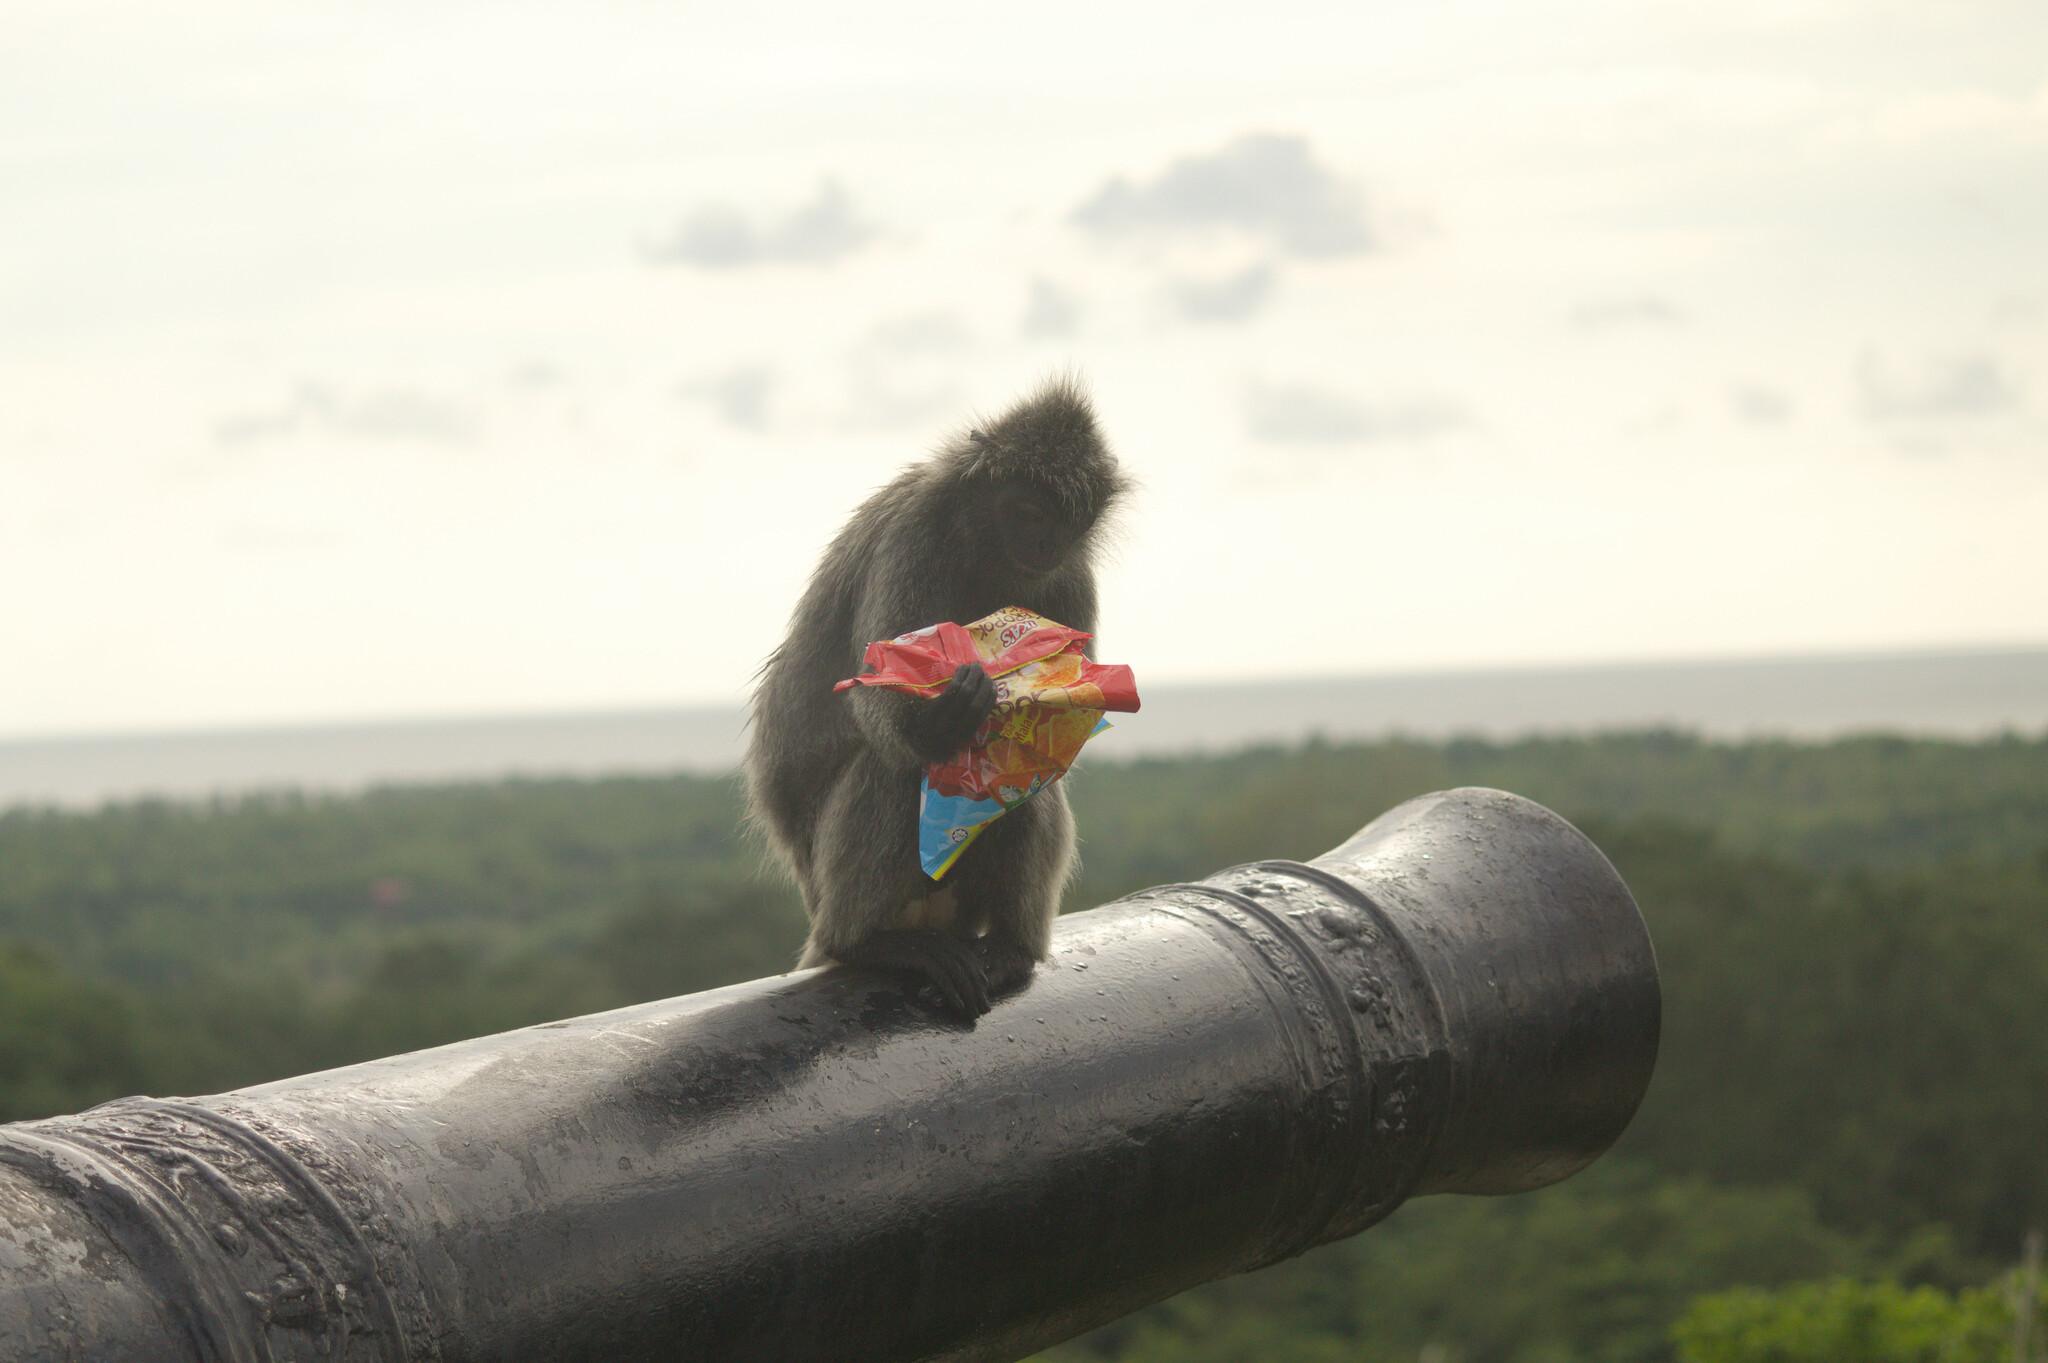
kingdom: Animalia
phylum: Chordata
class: Mammalia
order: Primates
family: Cercopithecidae
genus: Trachypithecus
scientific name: Trachypithecus selangorensis
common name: Selangor silvery langur
